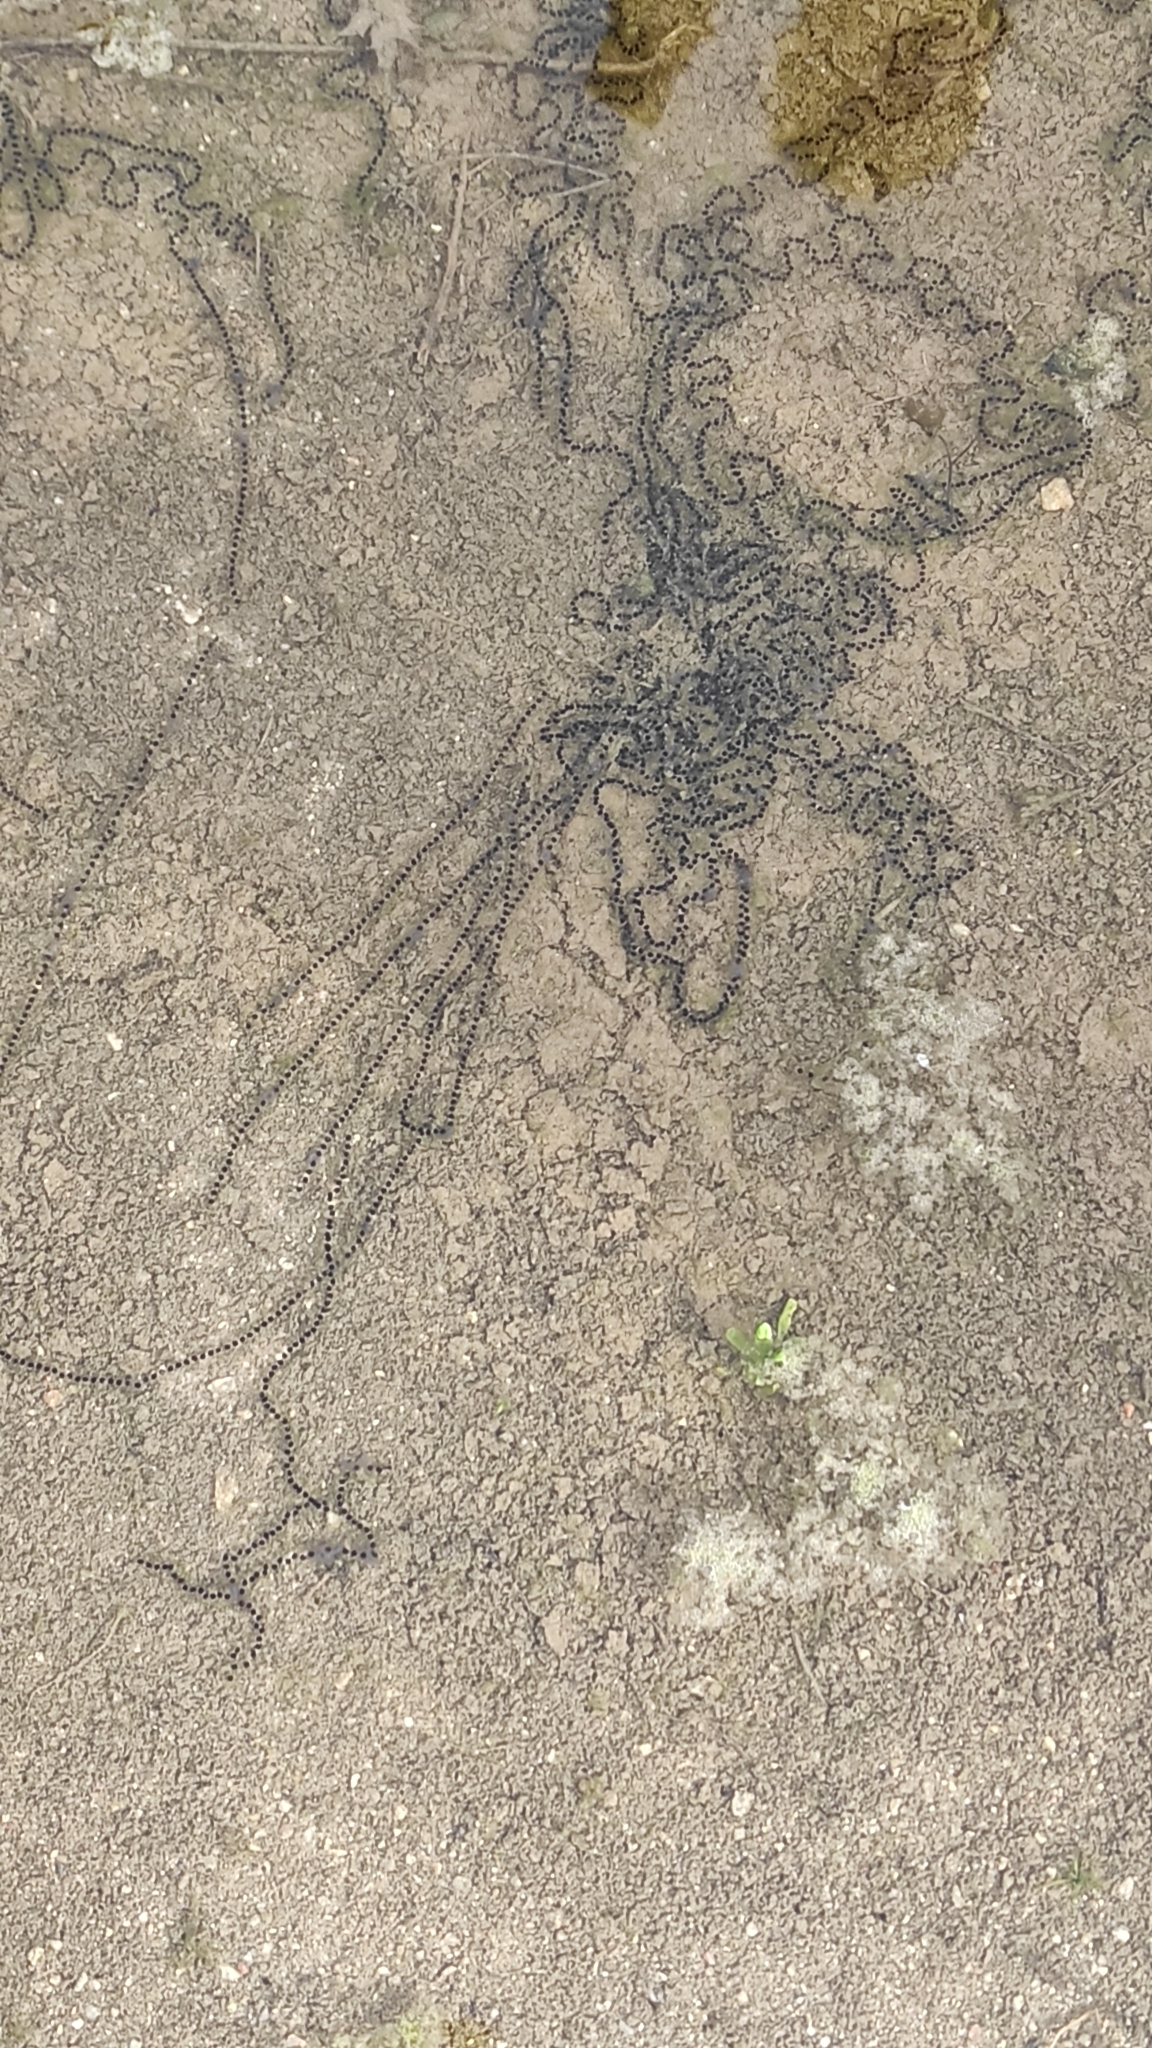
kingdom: Animalia
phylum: Chordata
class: Amphibia
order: Anura
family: Bufonidae
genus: Epidalea
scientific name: Epidalea calamita
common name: Natterjack toad
